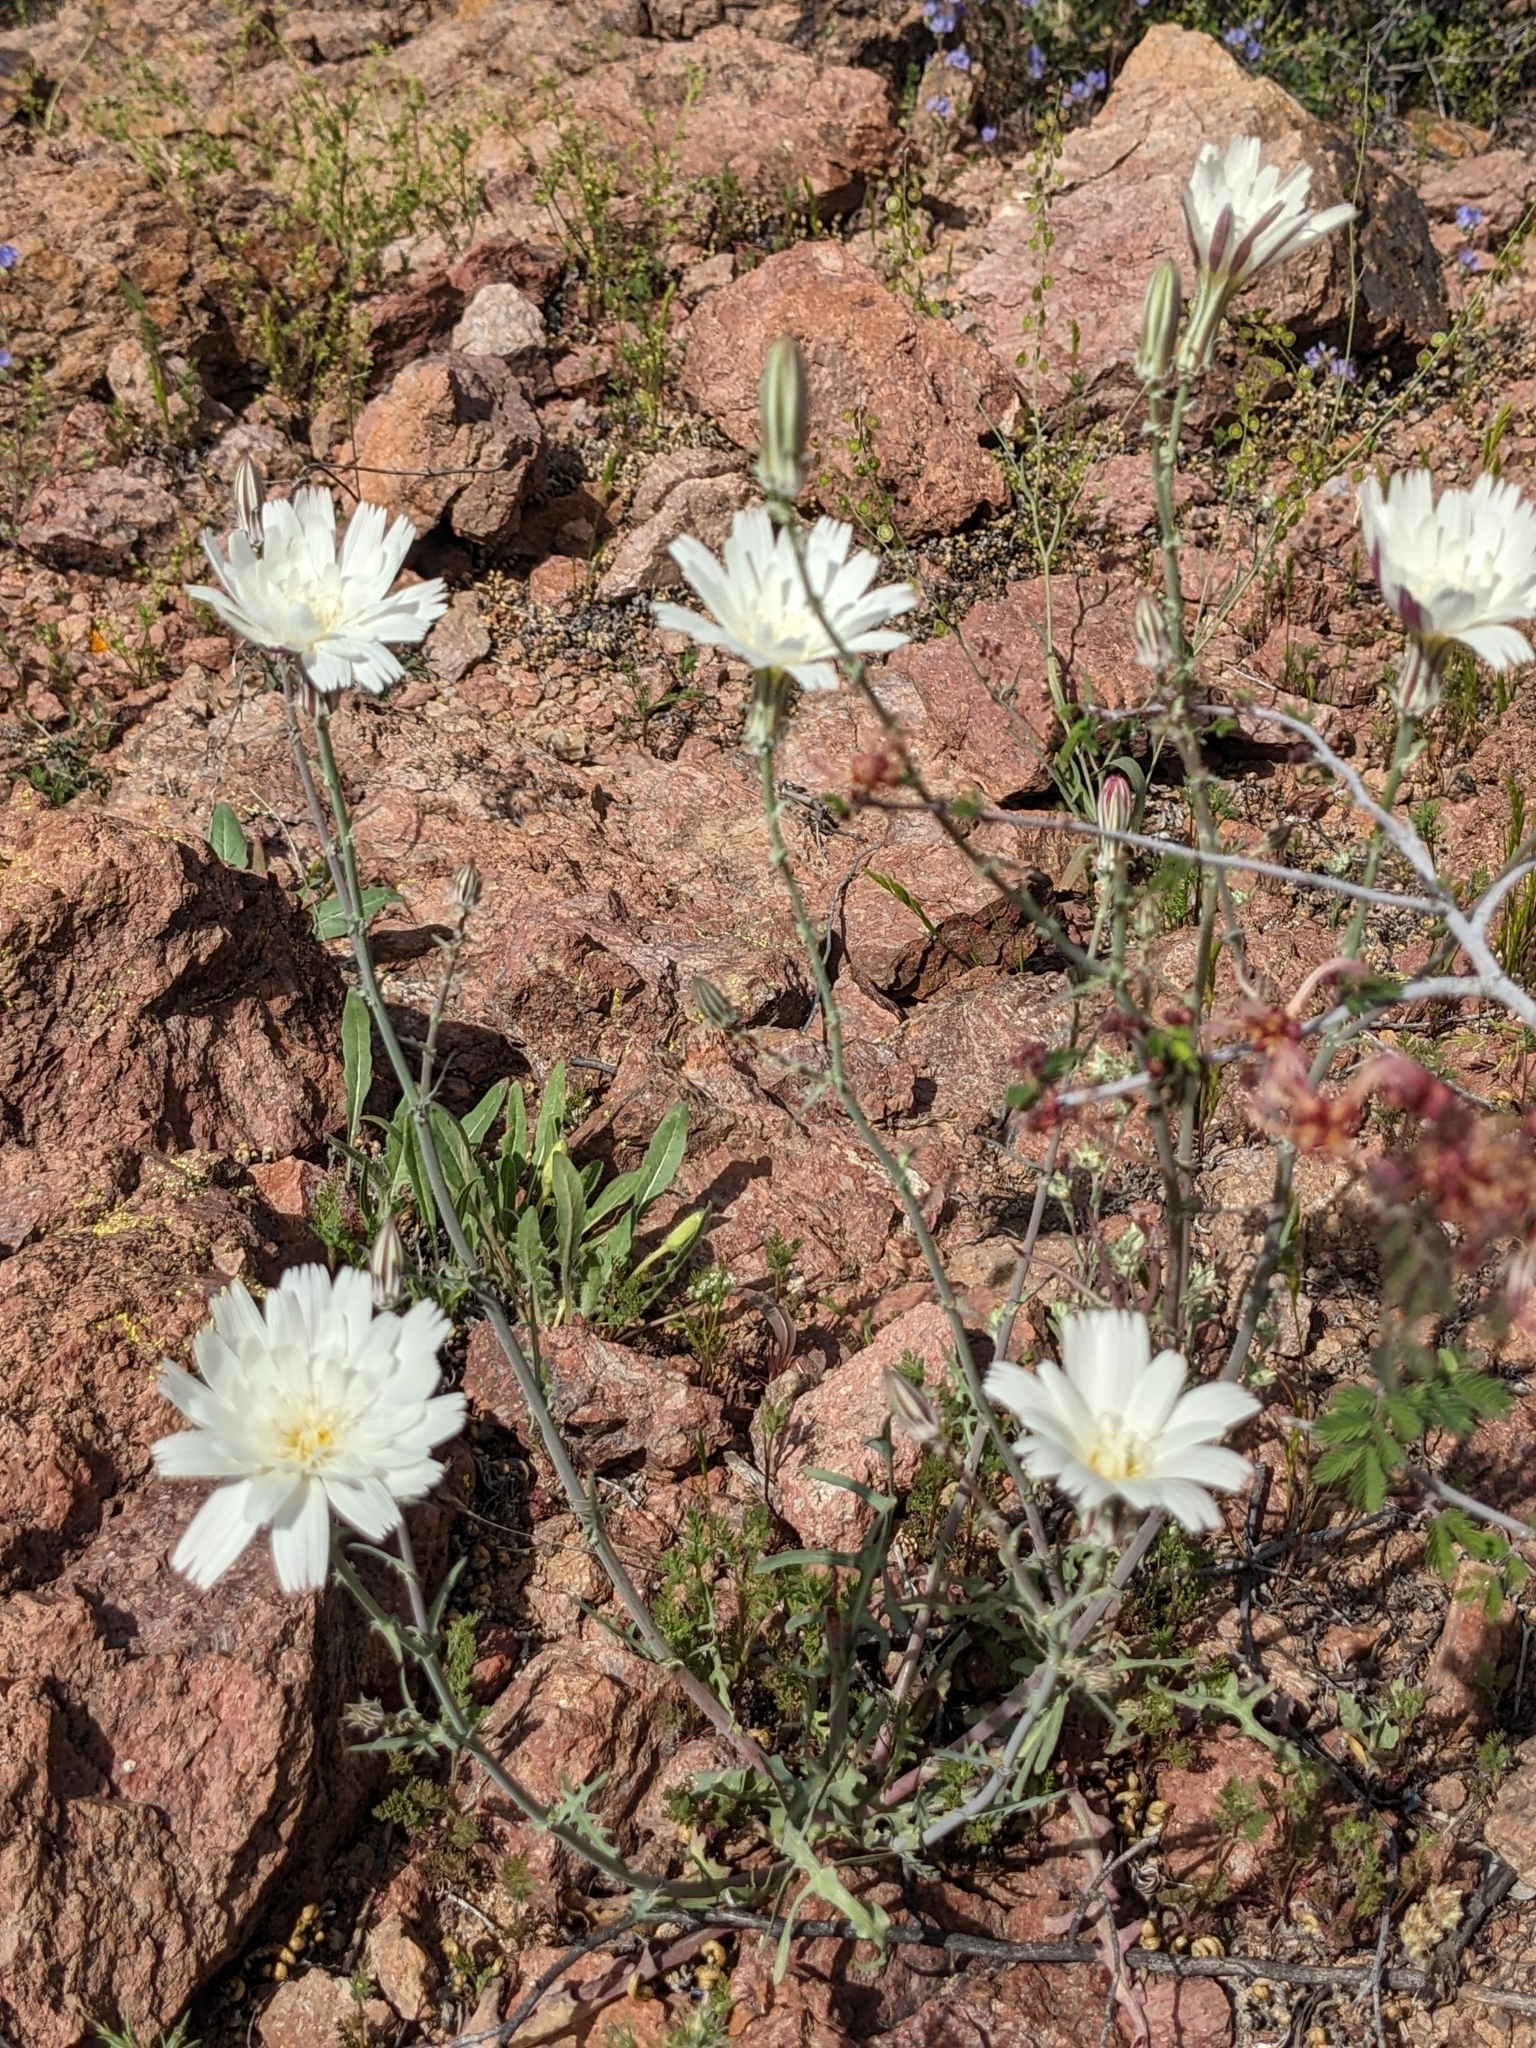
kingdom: Plantae
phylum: Tracheophyta
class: Magnoliopsida
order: Asterales
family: Asteraceae
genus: Rafinesquia
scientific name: Rafinesquia neomexicana
